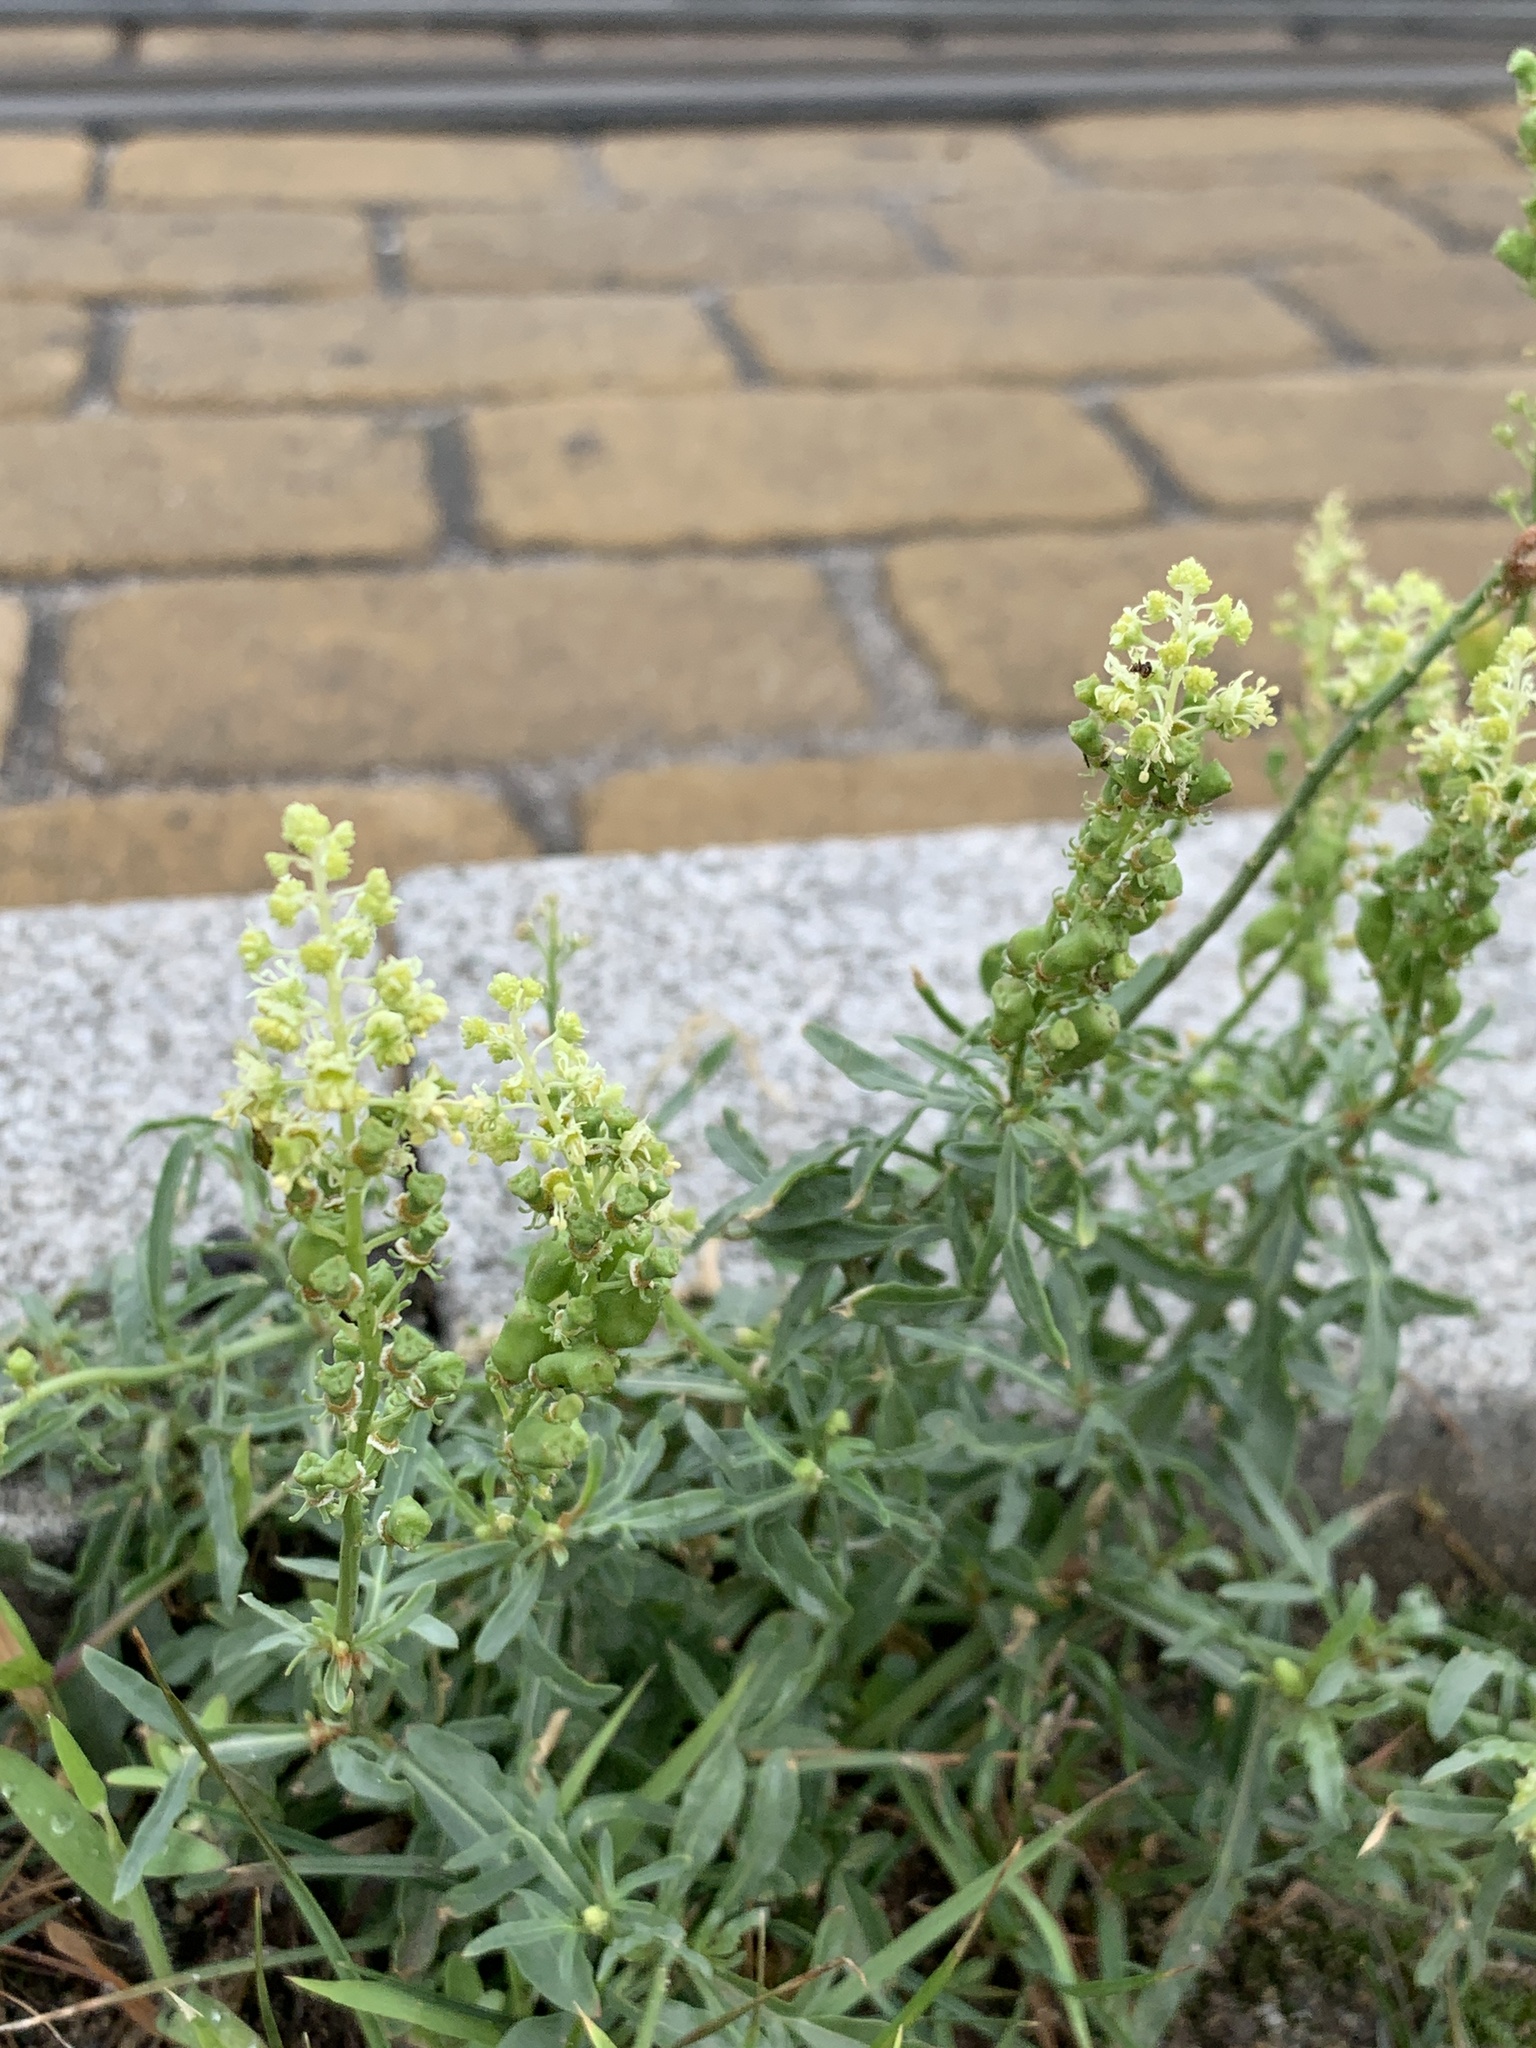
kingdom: Plantae
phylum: Tracheophyta
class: Magnoliopsida
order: Brassicales
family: Resedaceae
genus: Reseda
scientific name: Reseda lutea
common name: Wild mignonette
